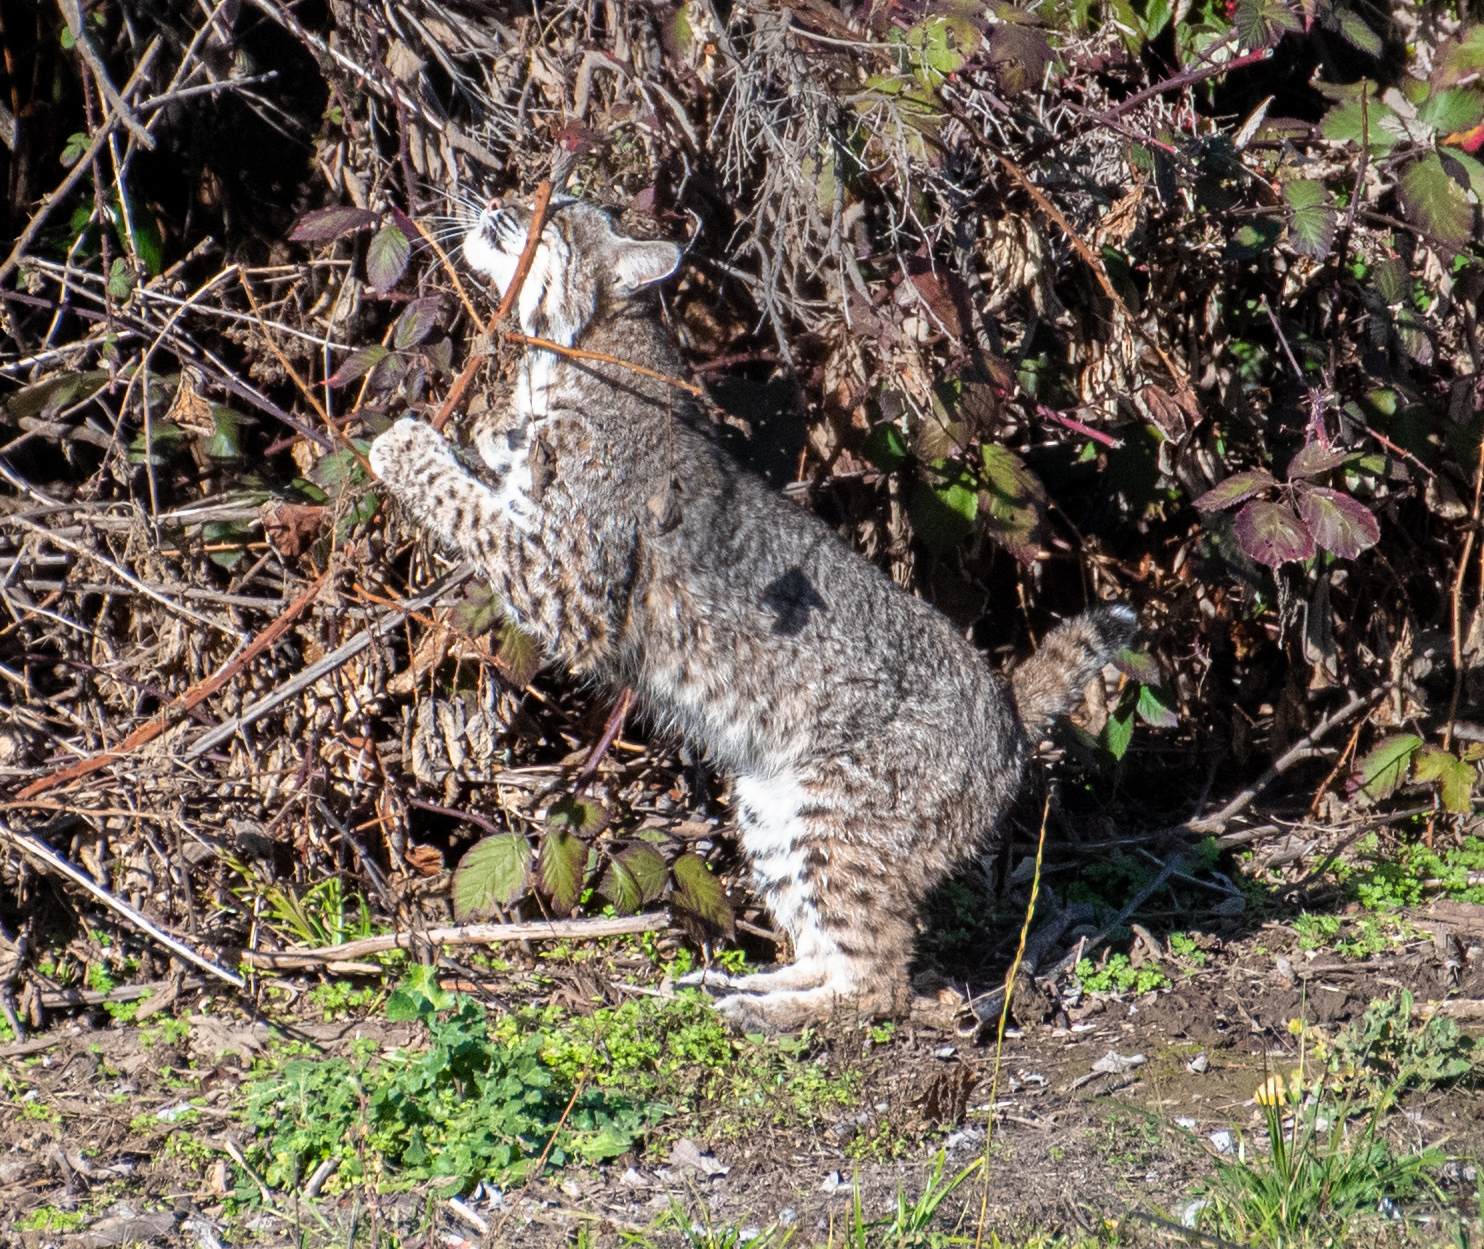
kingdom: Animalia
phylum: Chordata
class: Mammalia
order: Carnivora
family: Felidae
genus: Lynx
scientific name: Lynx rufus
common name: Bobcat
